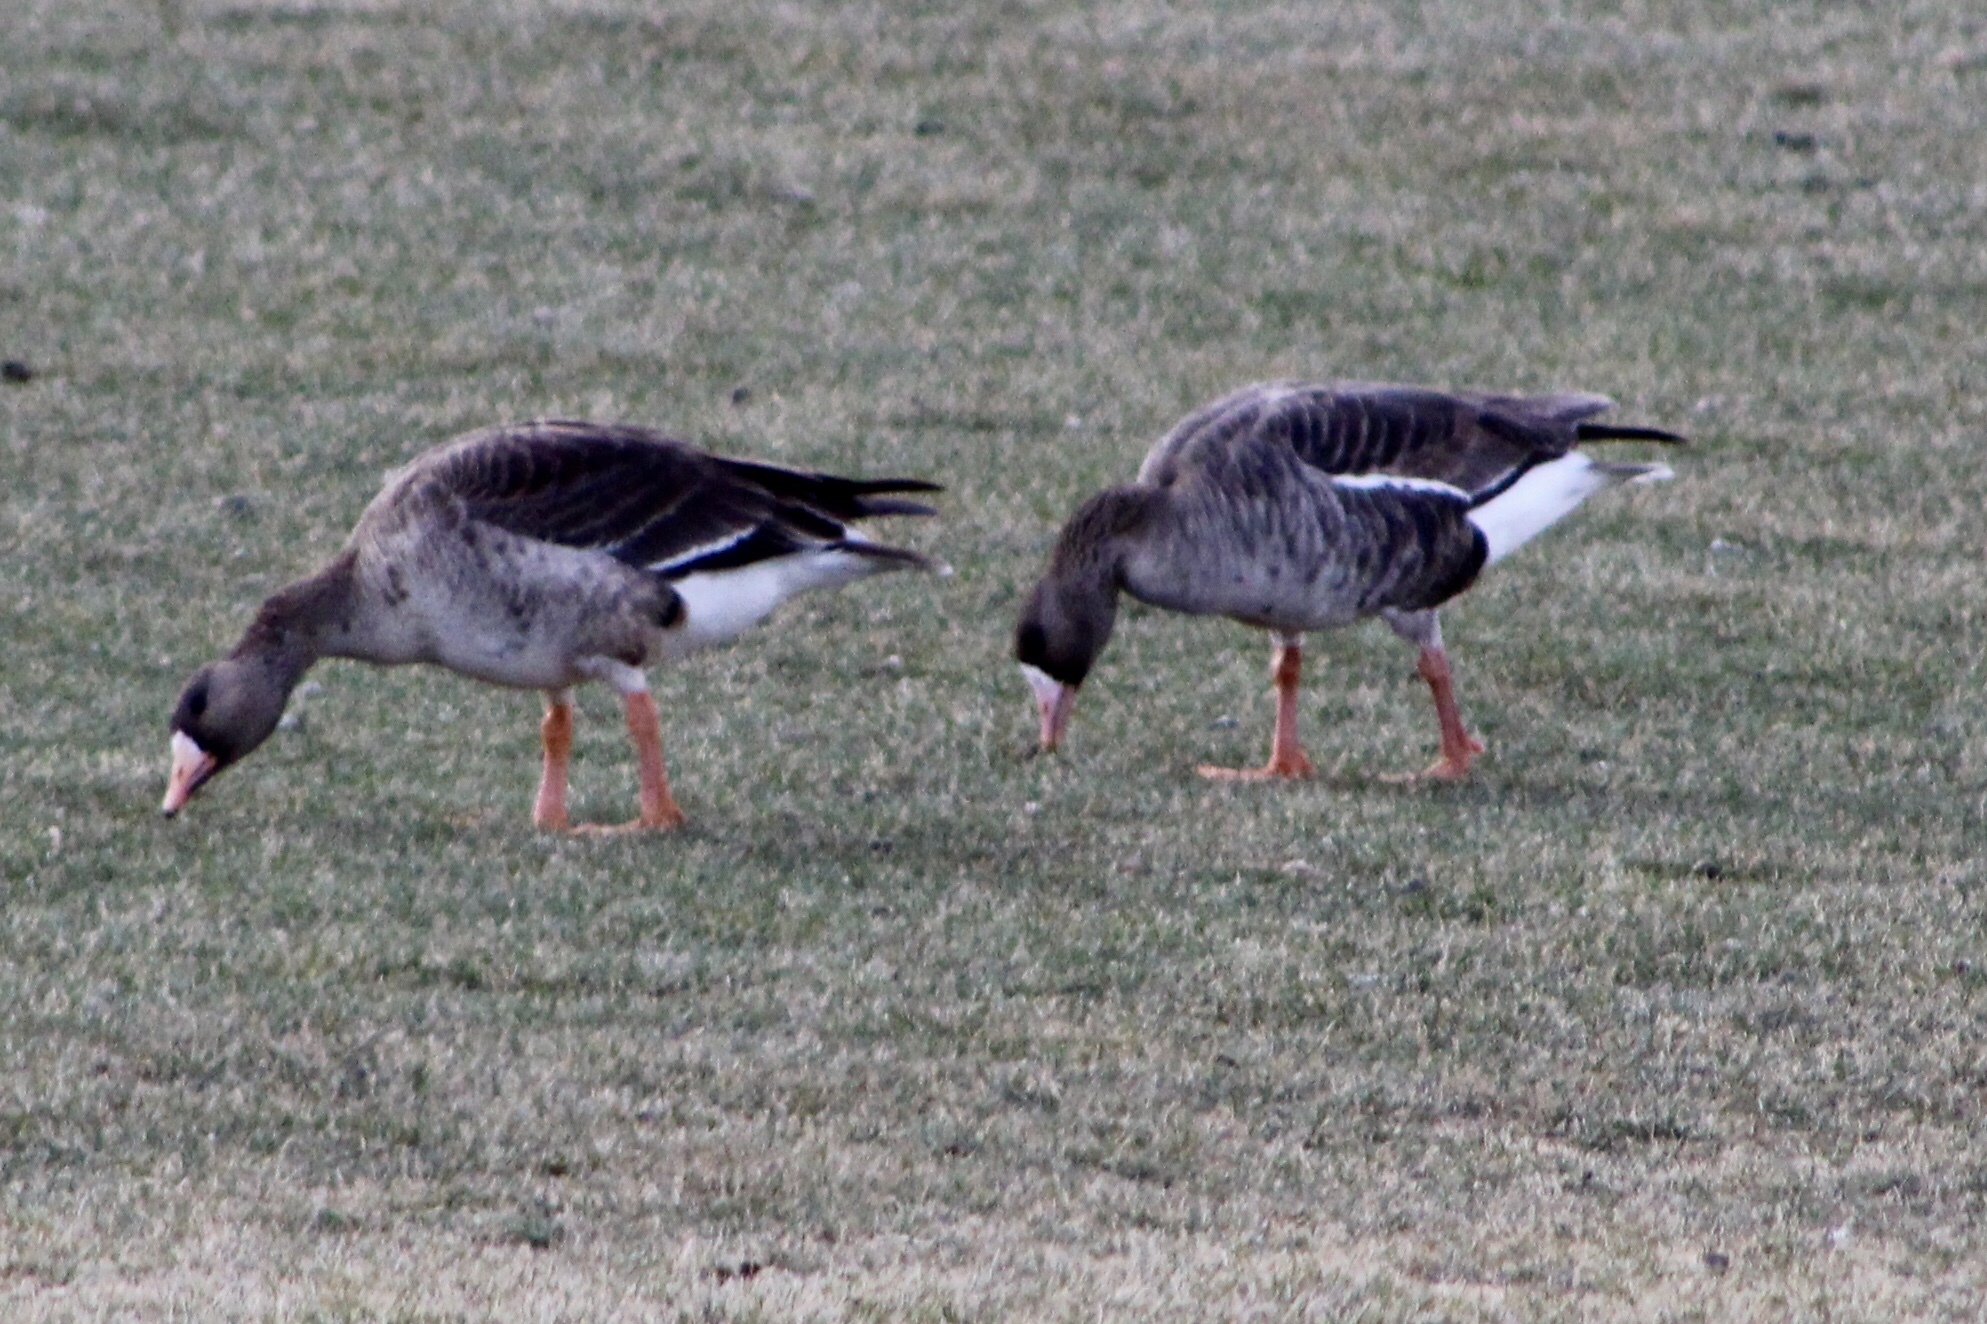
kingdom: Animalia
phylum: Chordata
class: Aves
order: Anseriformes
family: Anatidae
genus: Anser
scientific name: Anser albifrons
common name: Greater white-fronted goose
